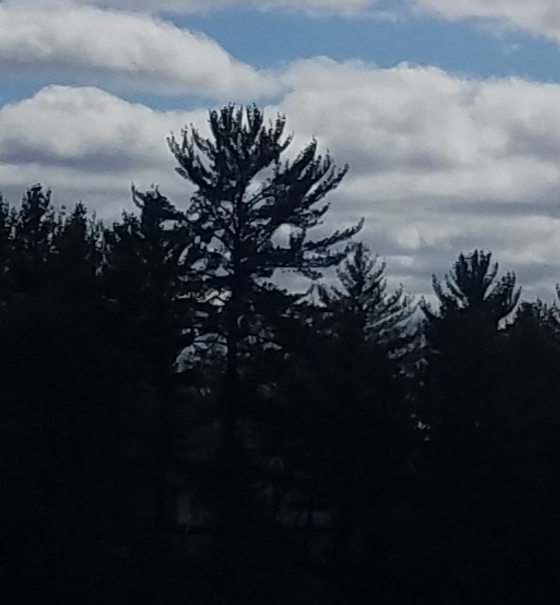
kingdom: Plantae
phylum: Tracheophyta
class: Pinopsida
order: Pinales
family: Pinaceae
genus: Pinus
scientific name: Pinus strobus
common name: Weymouth pine
